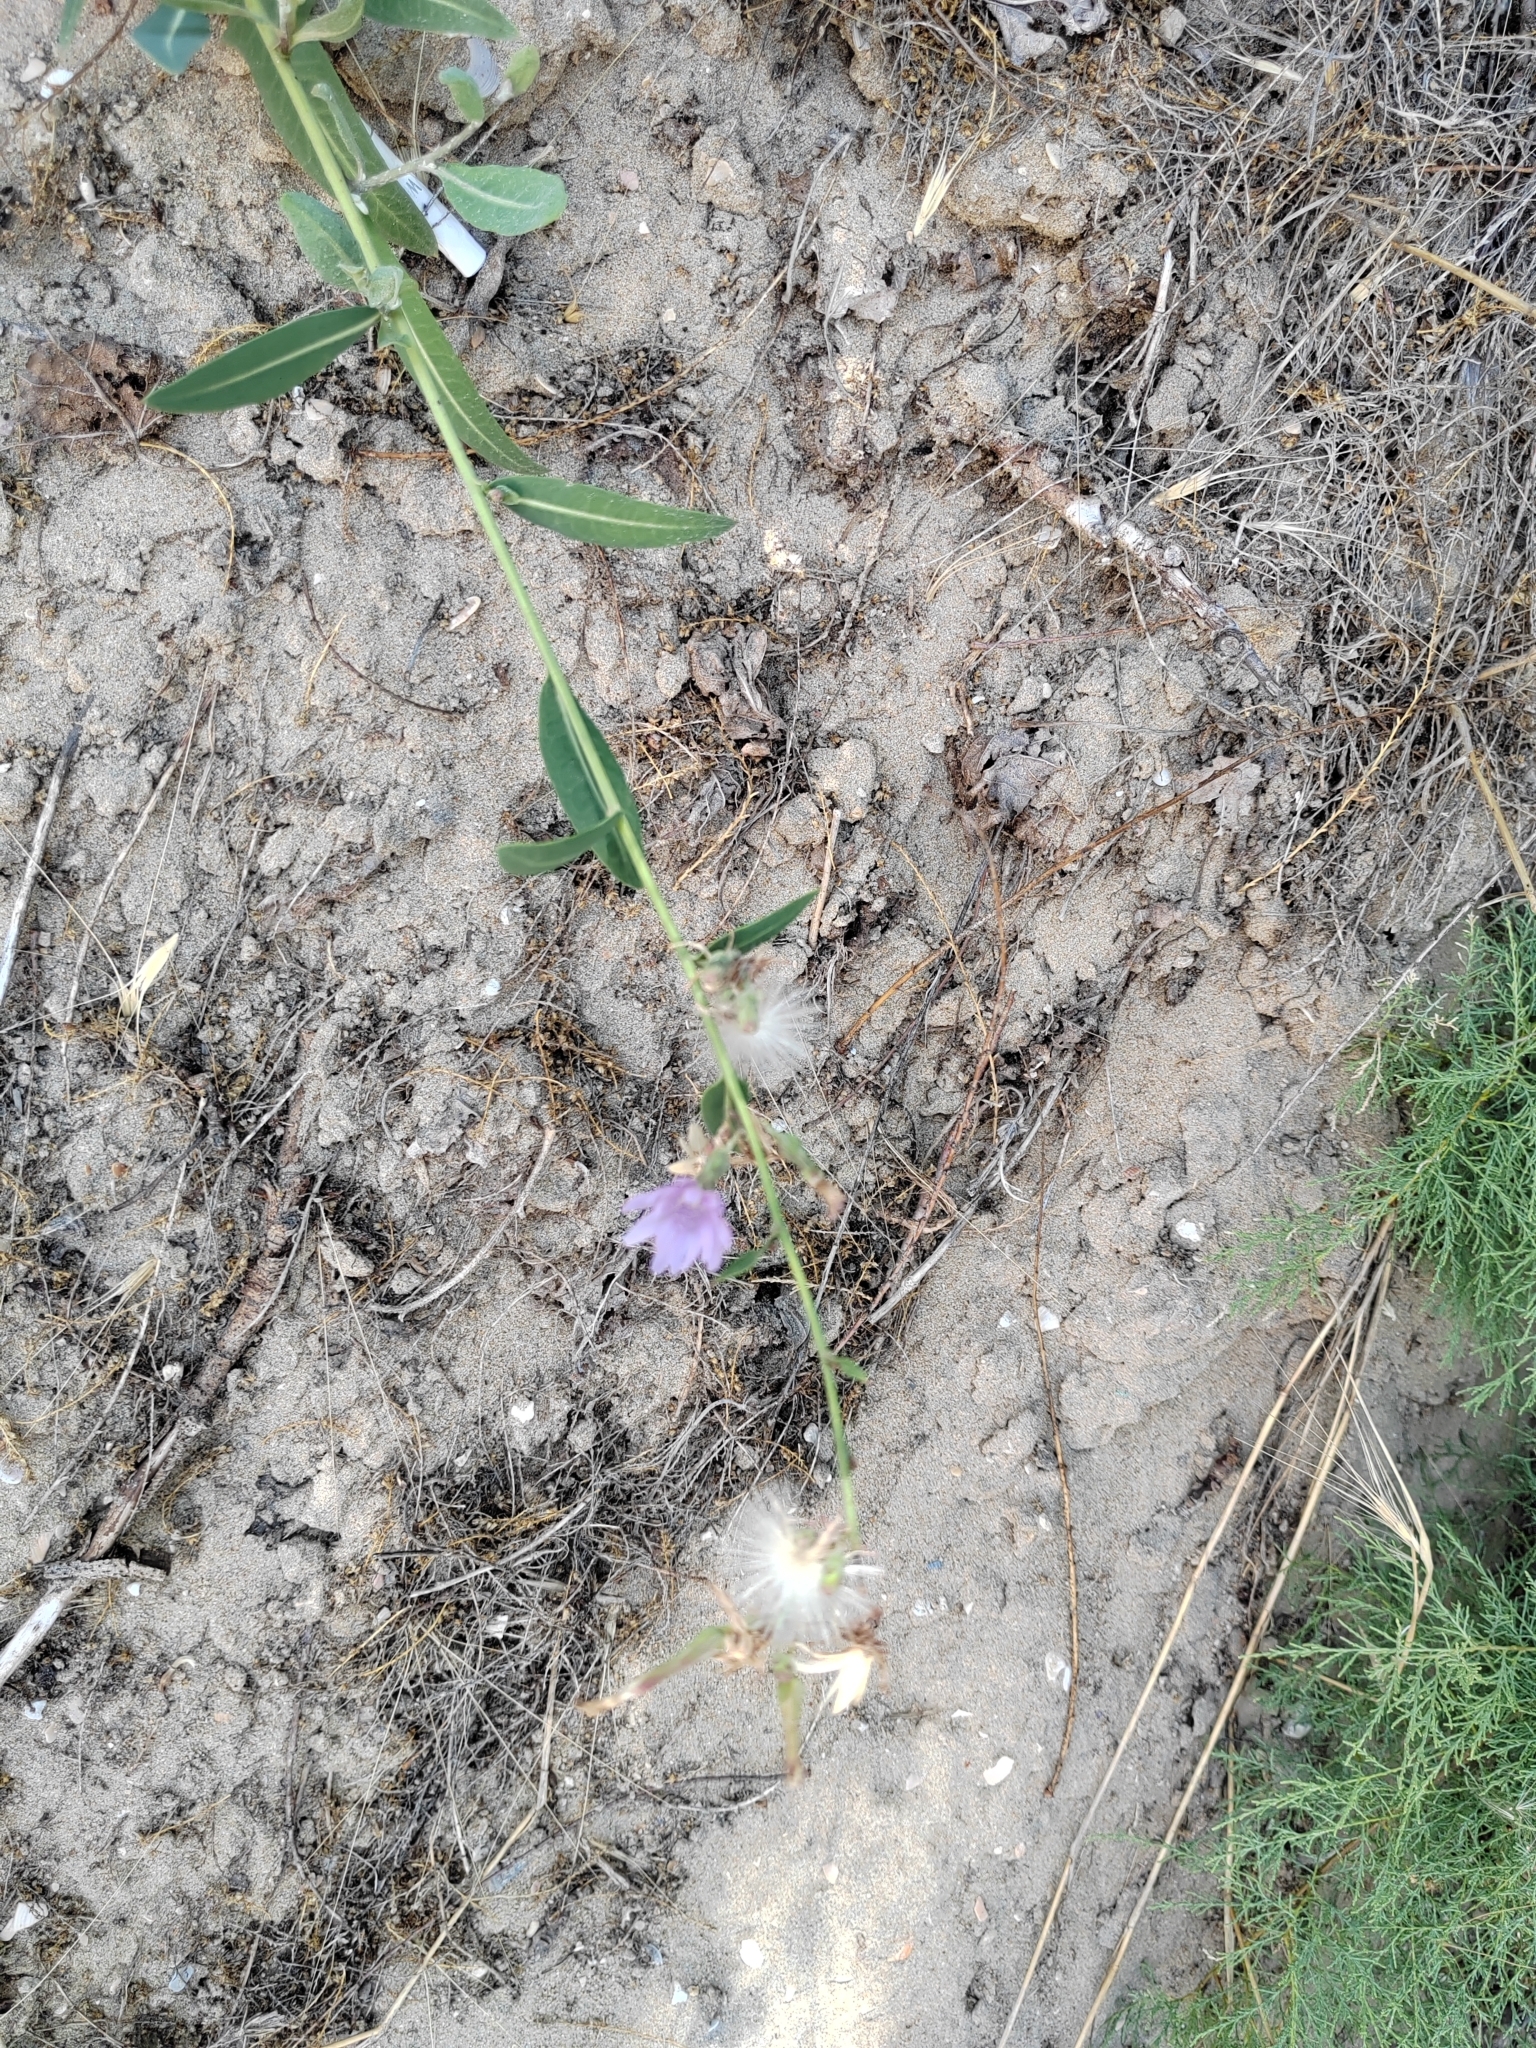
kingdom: Plantae
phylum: Tracheophyta
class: Magnoliopsida
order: Asterales
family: Asteraceae
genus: Lactuca
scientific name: Lactuca tatarica
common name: Blue lettuce
